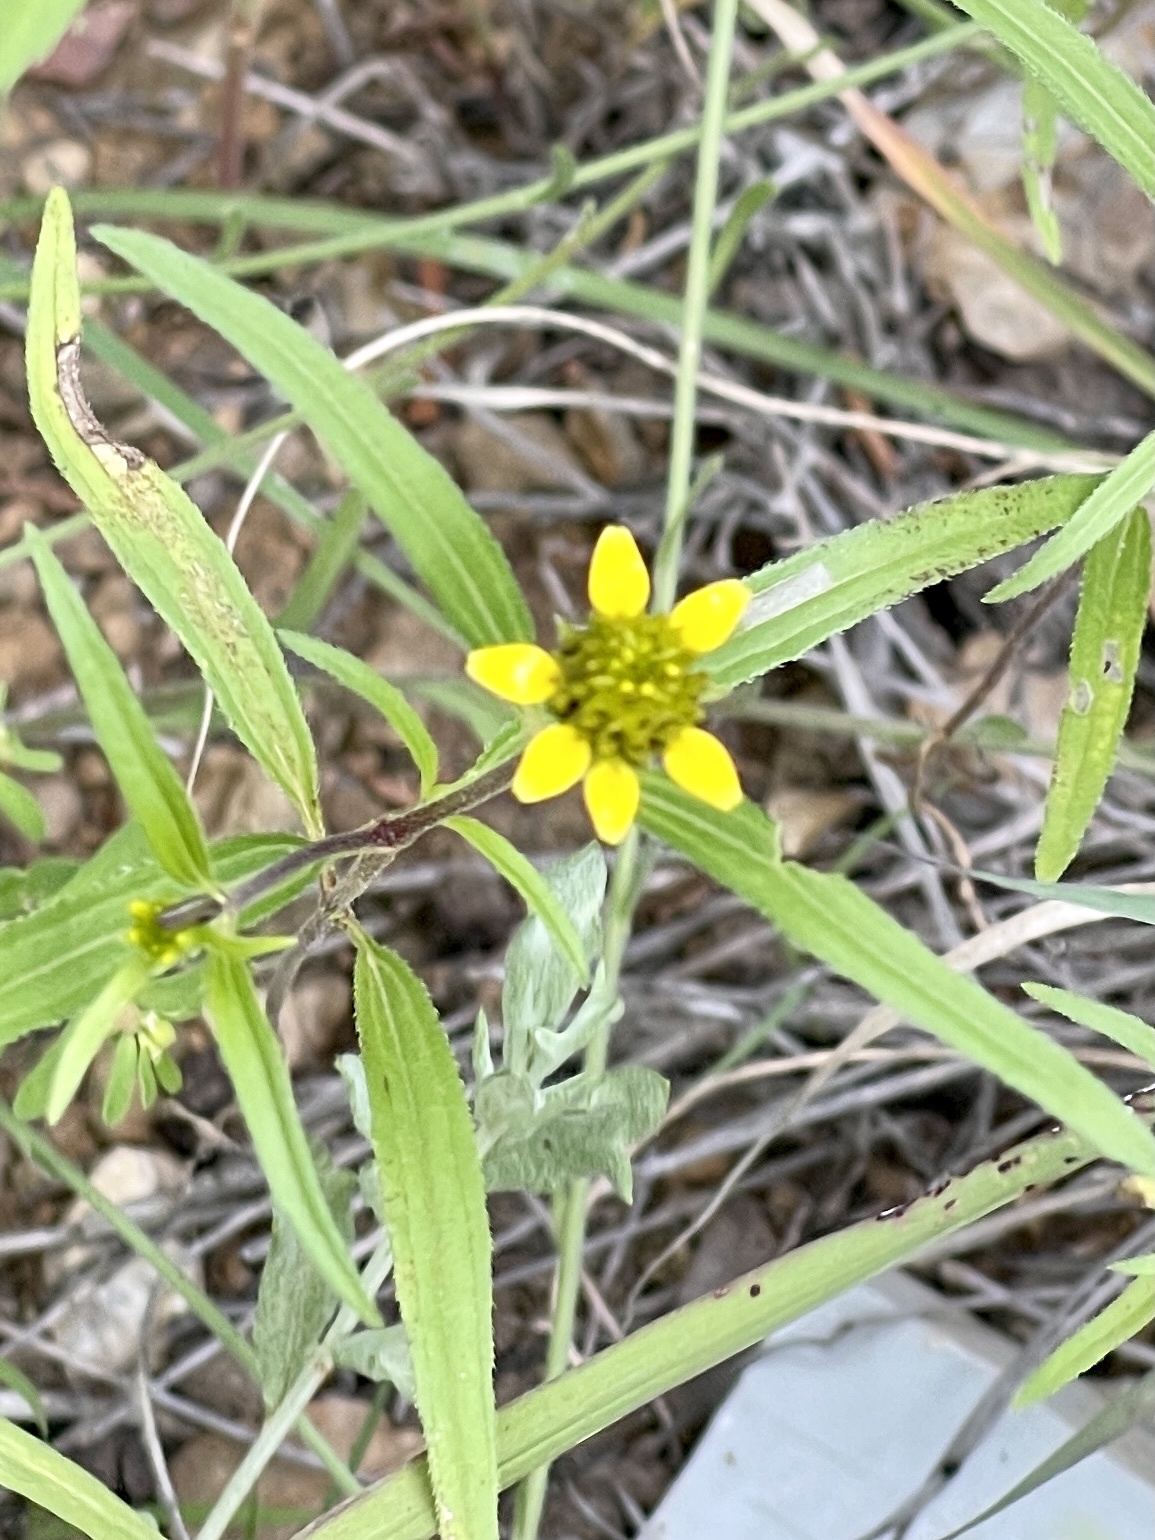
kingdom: Plantae
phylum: Tracheophyta
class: Magnoliopsida
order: Asterales
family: Asteraceae
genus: Sanvitalia
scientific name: Sanvitalia abertii
